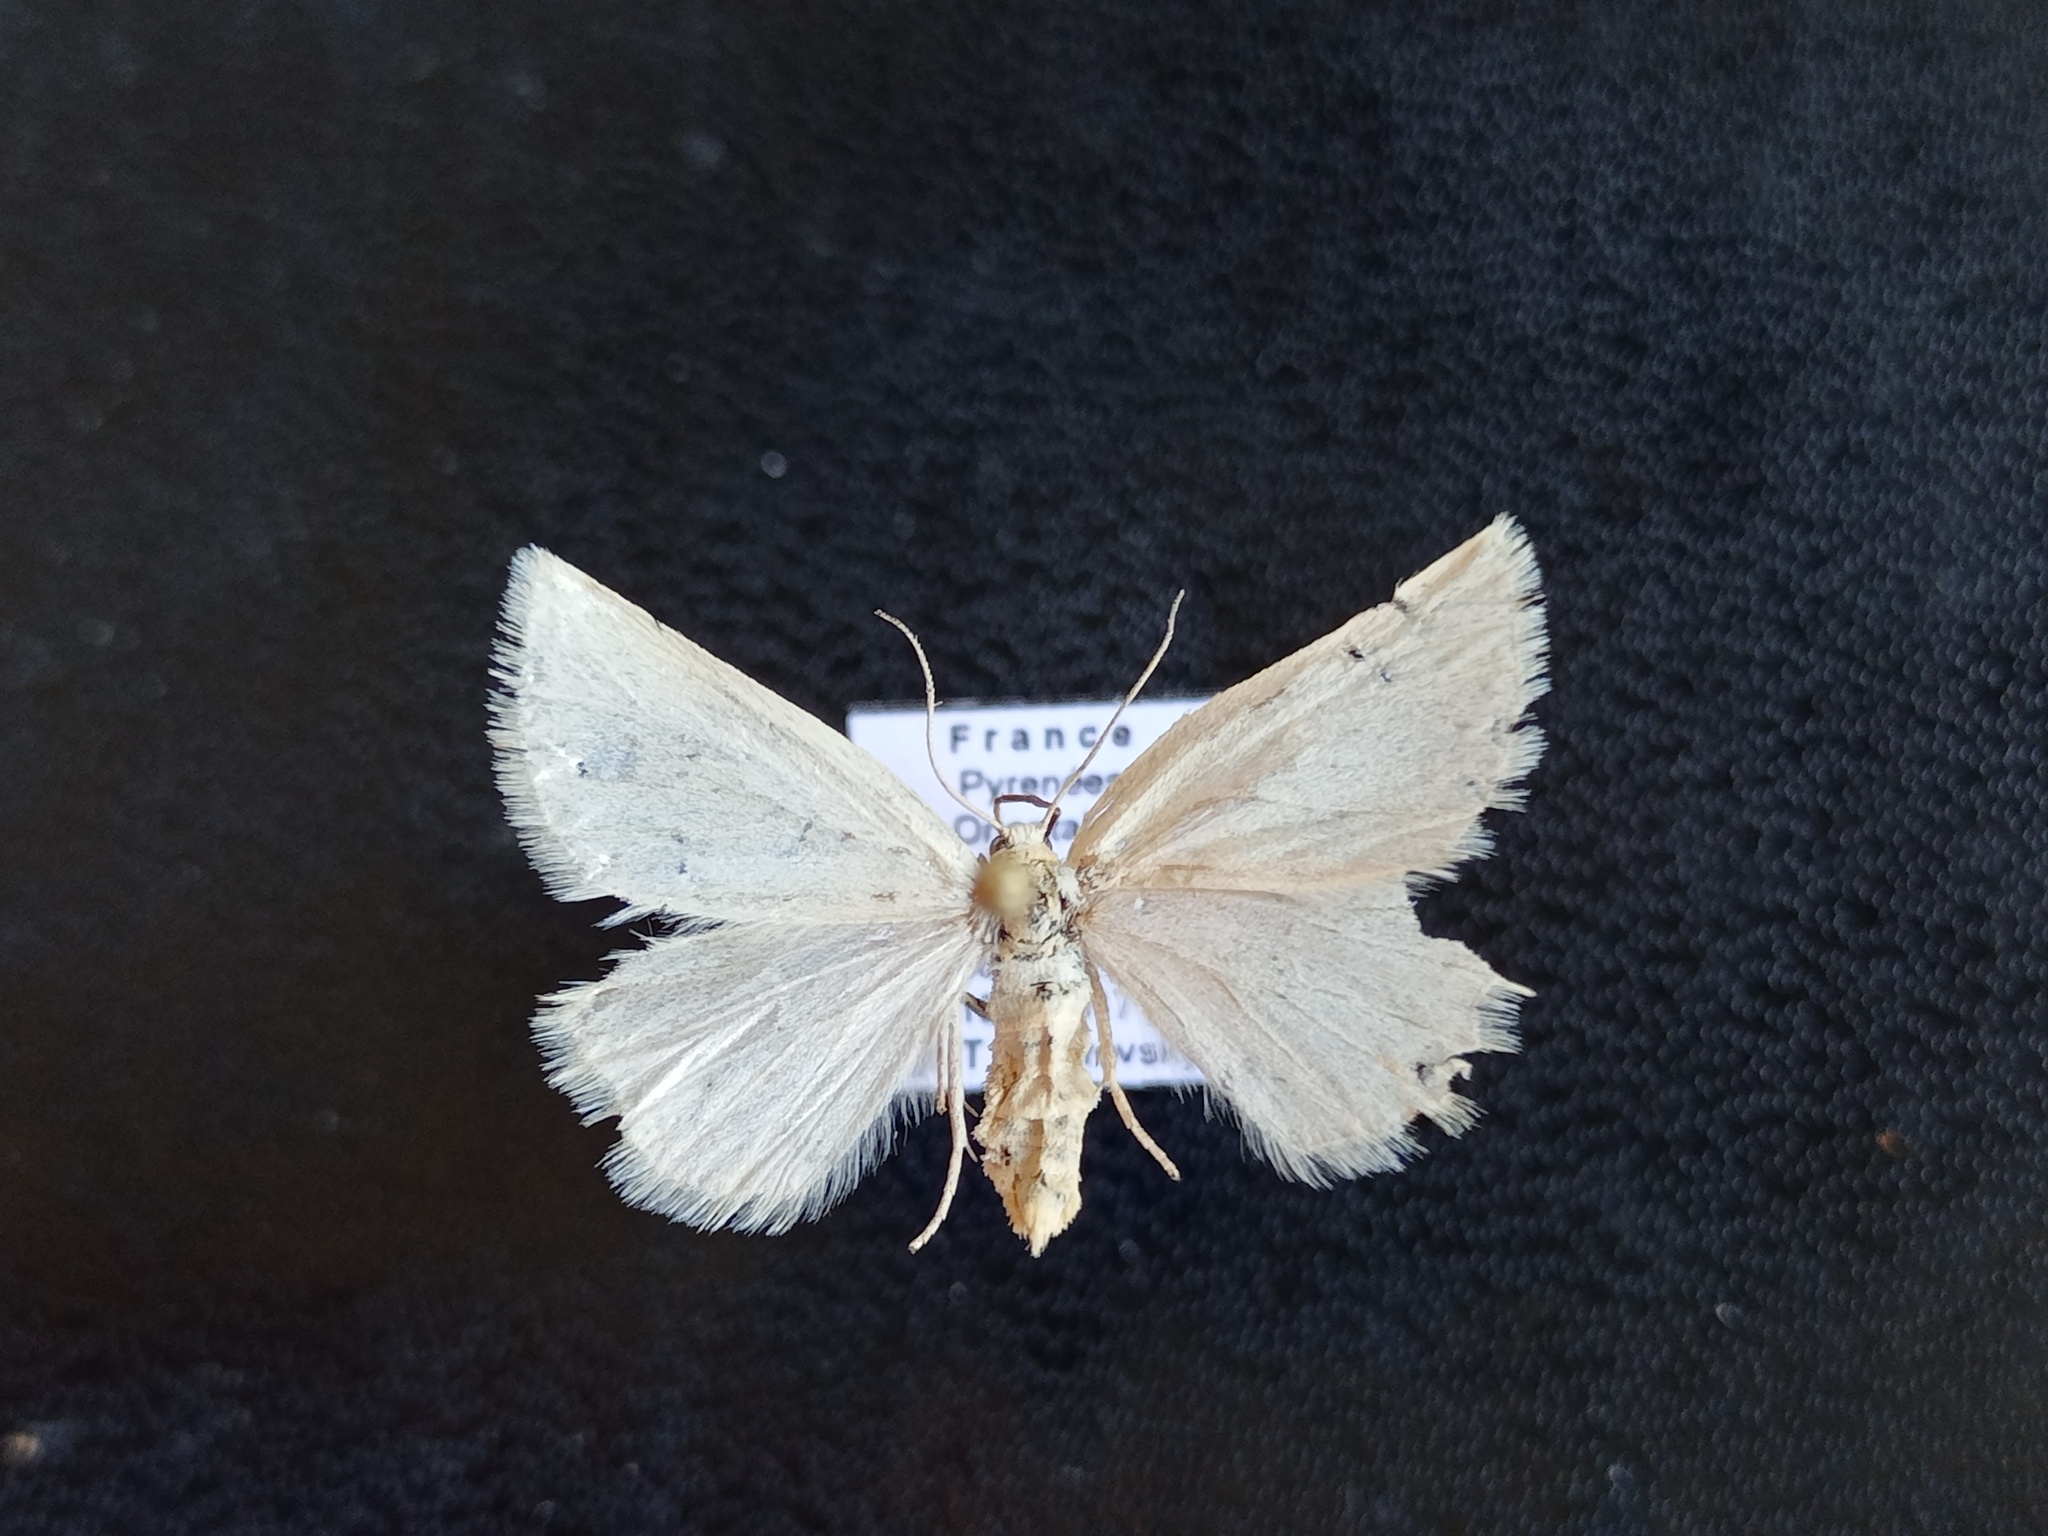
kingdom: Animalia
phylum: Arthropoda
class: Insecta
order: Lepidoptera
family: Geometridae
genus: Crocota
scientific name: Crocota peletieraria
